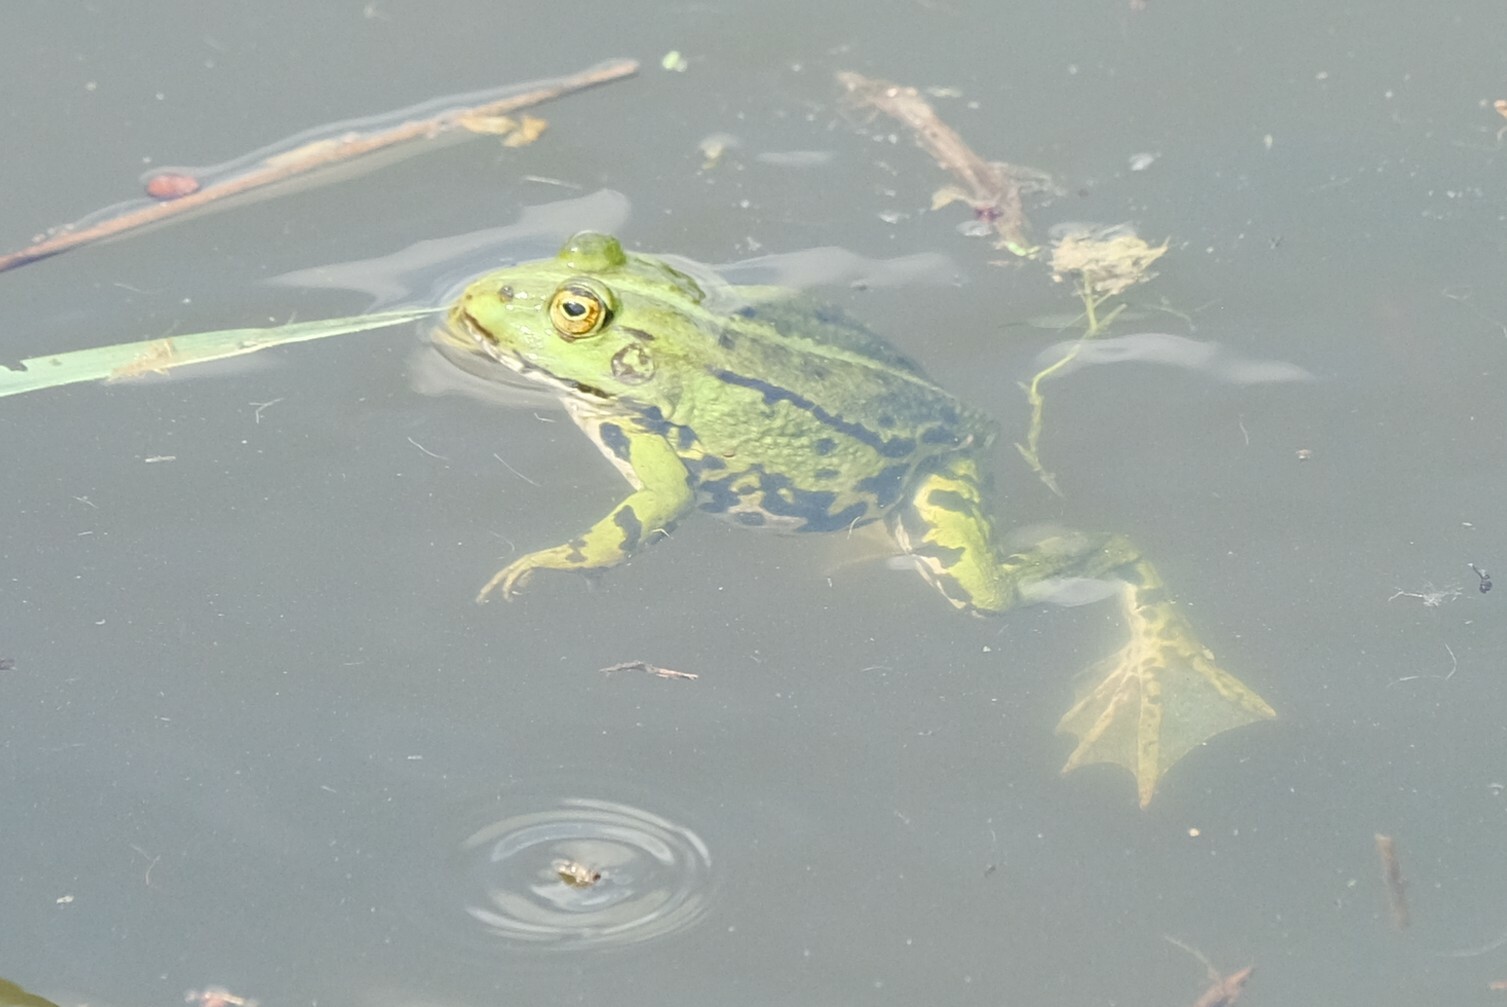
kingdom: Animalia
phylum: Chordata
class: Amphibia
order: Anura
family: Ranidae
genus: Pelophylax
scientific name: Pelophylax
